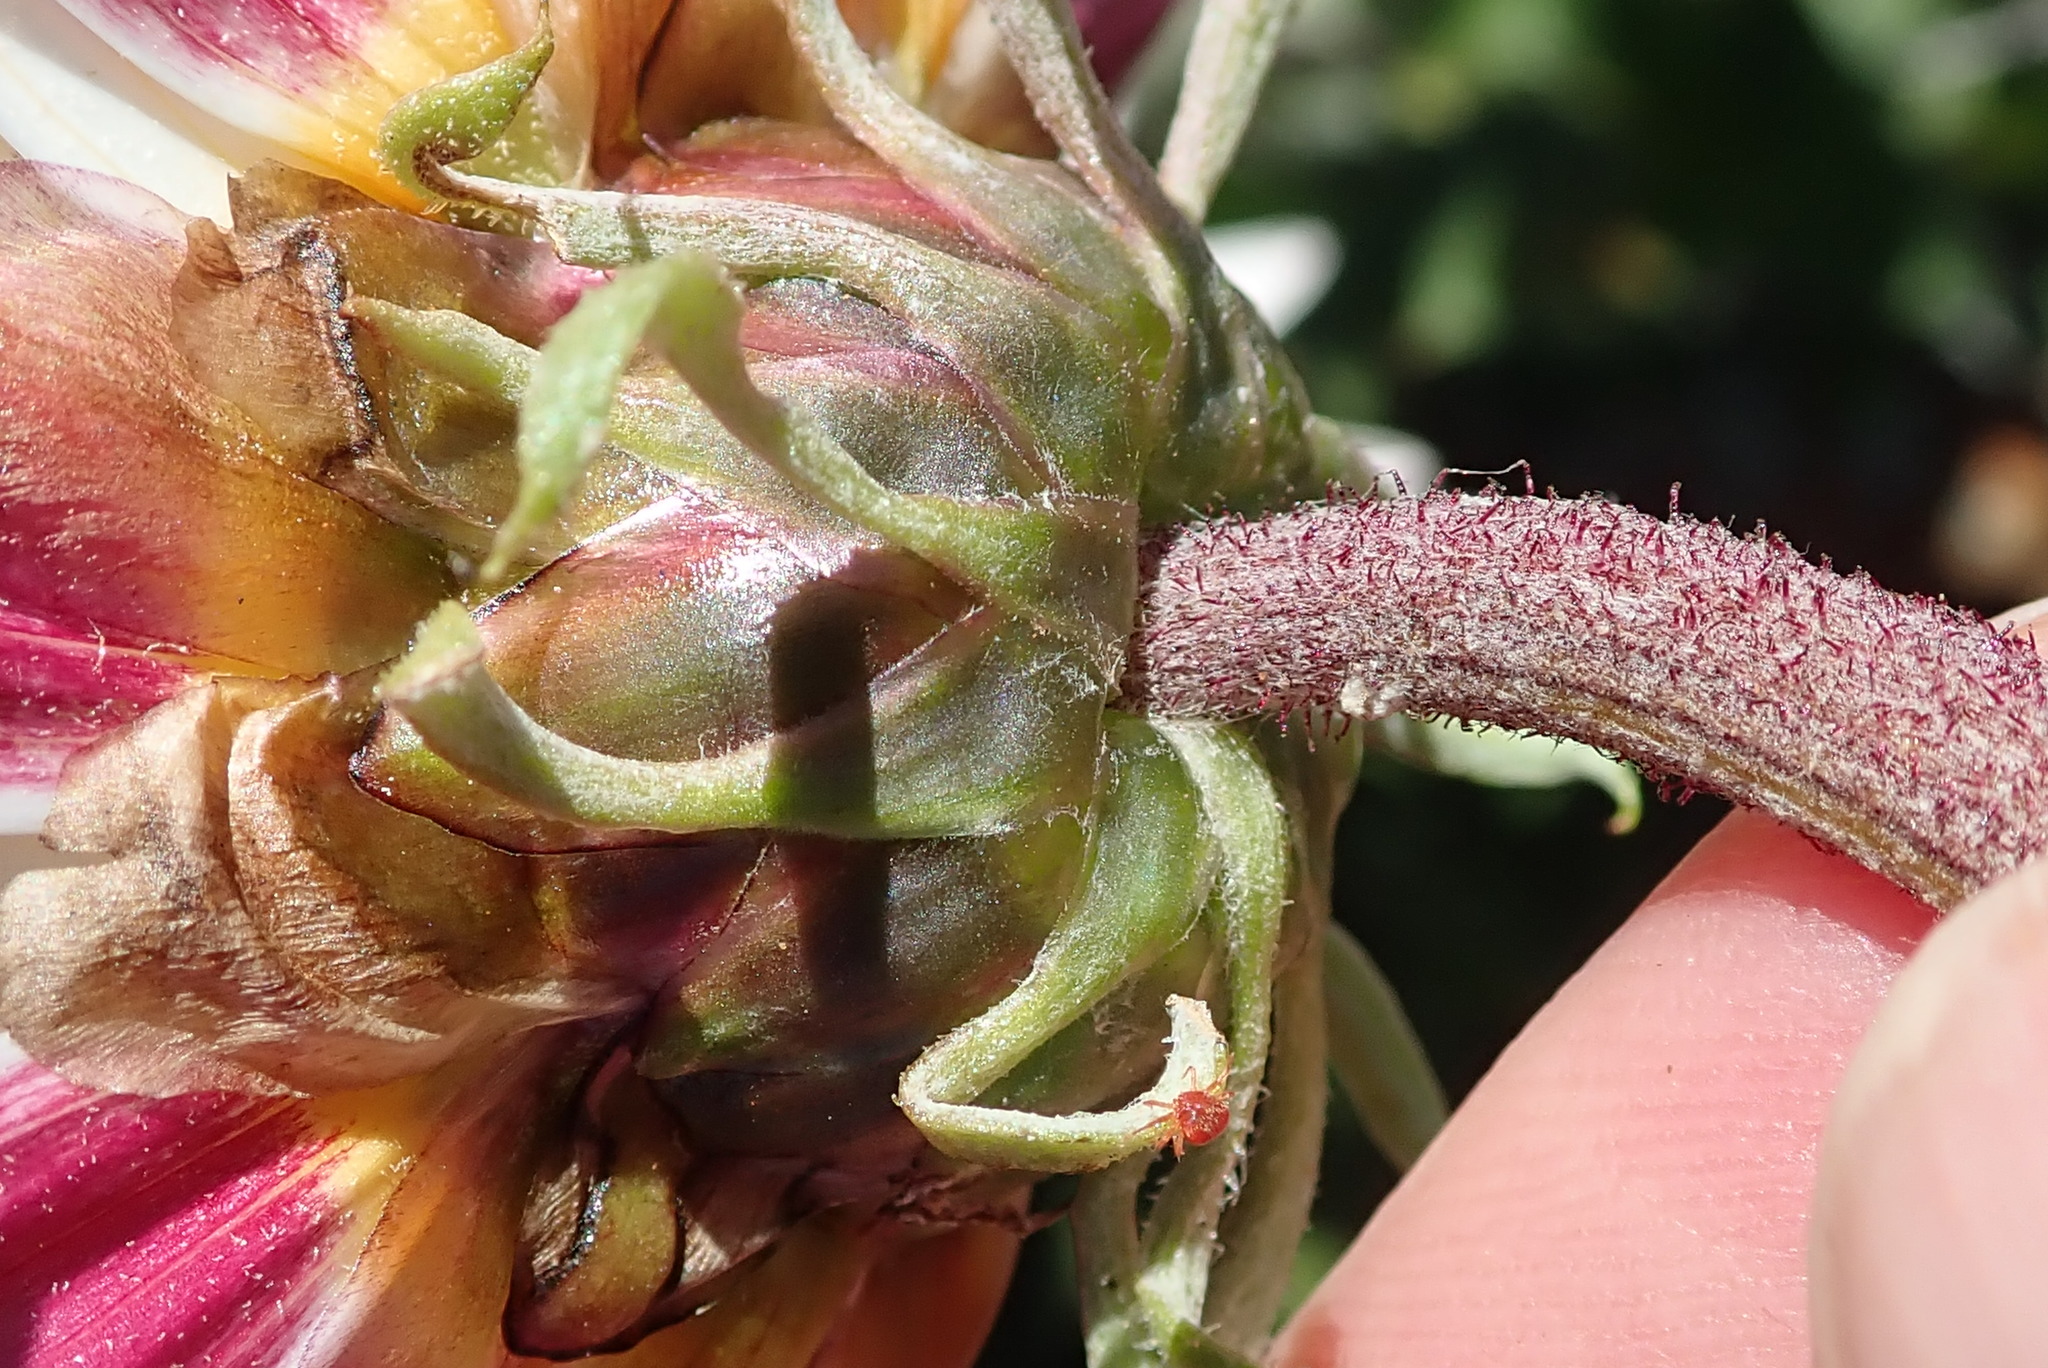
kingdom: Plantae
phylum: Tracheophyta
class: Magnoliopsida
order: Asterales
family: Asteraceae
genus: Arctotis
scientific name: Arctotis acaulis
